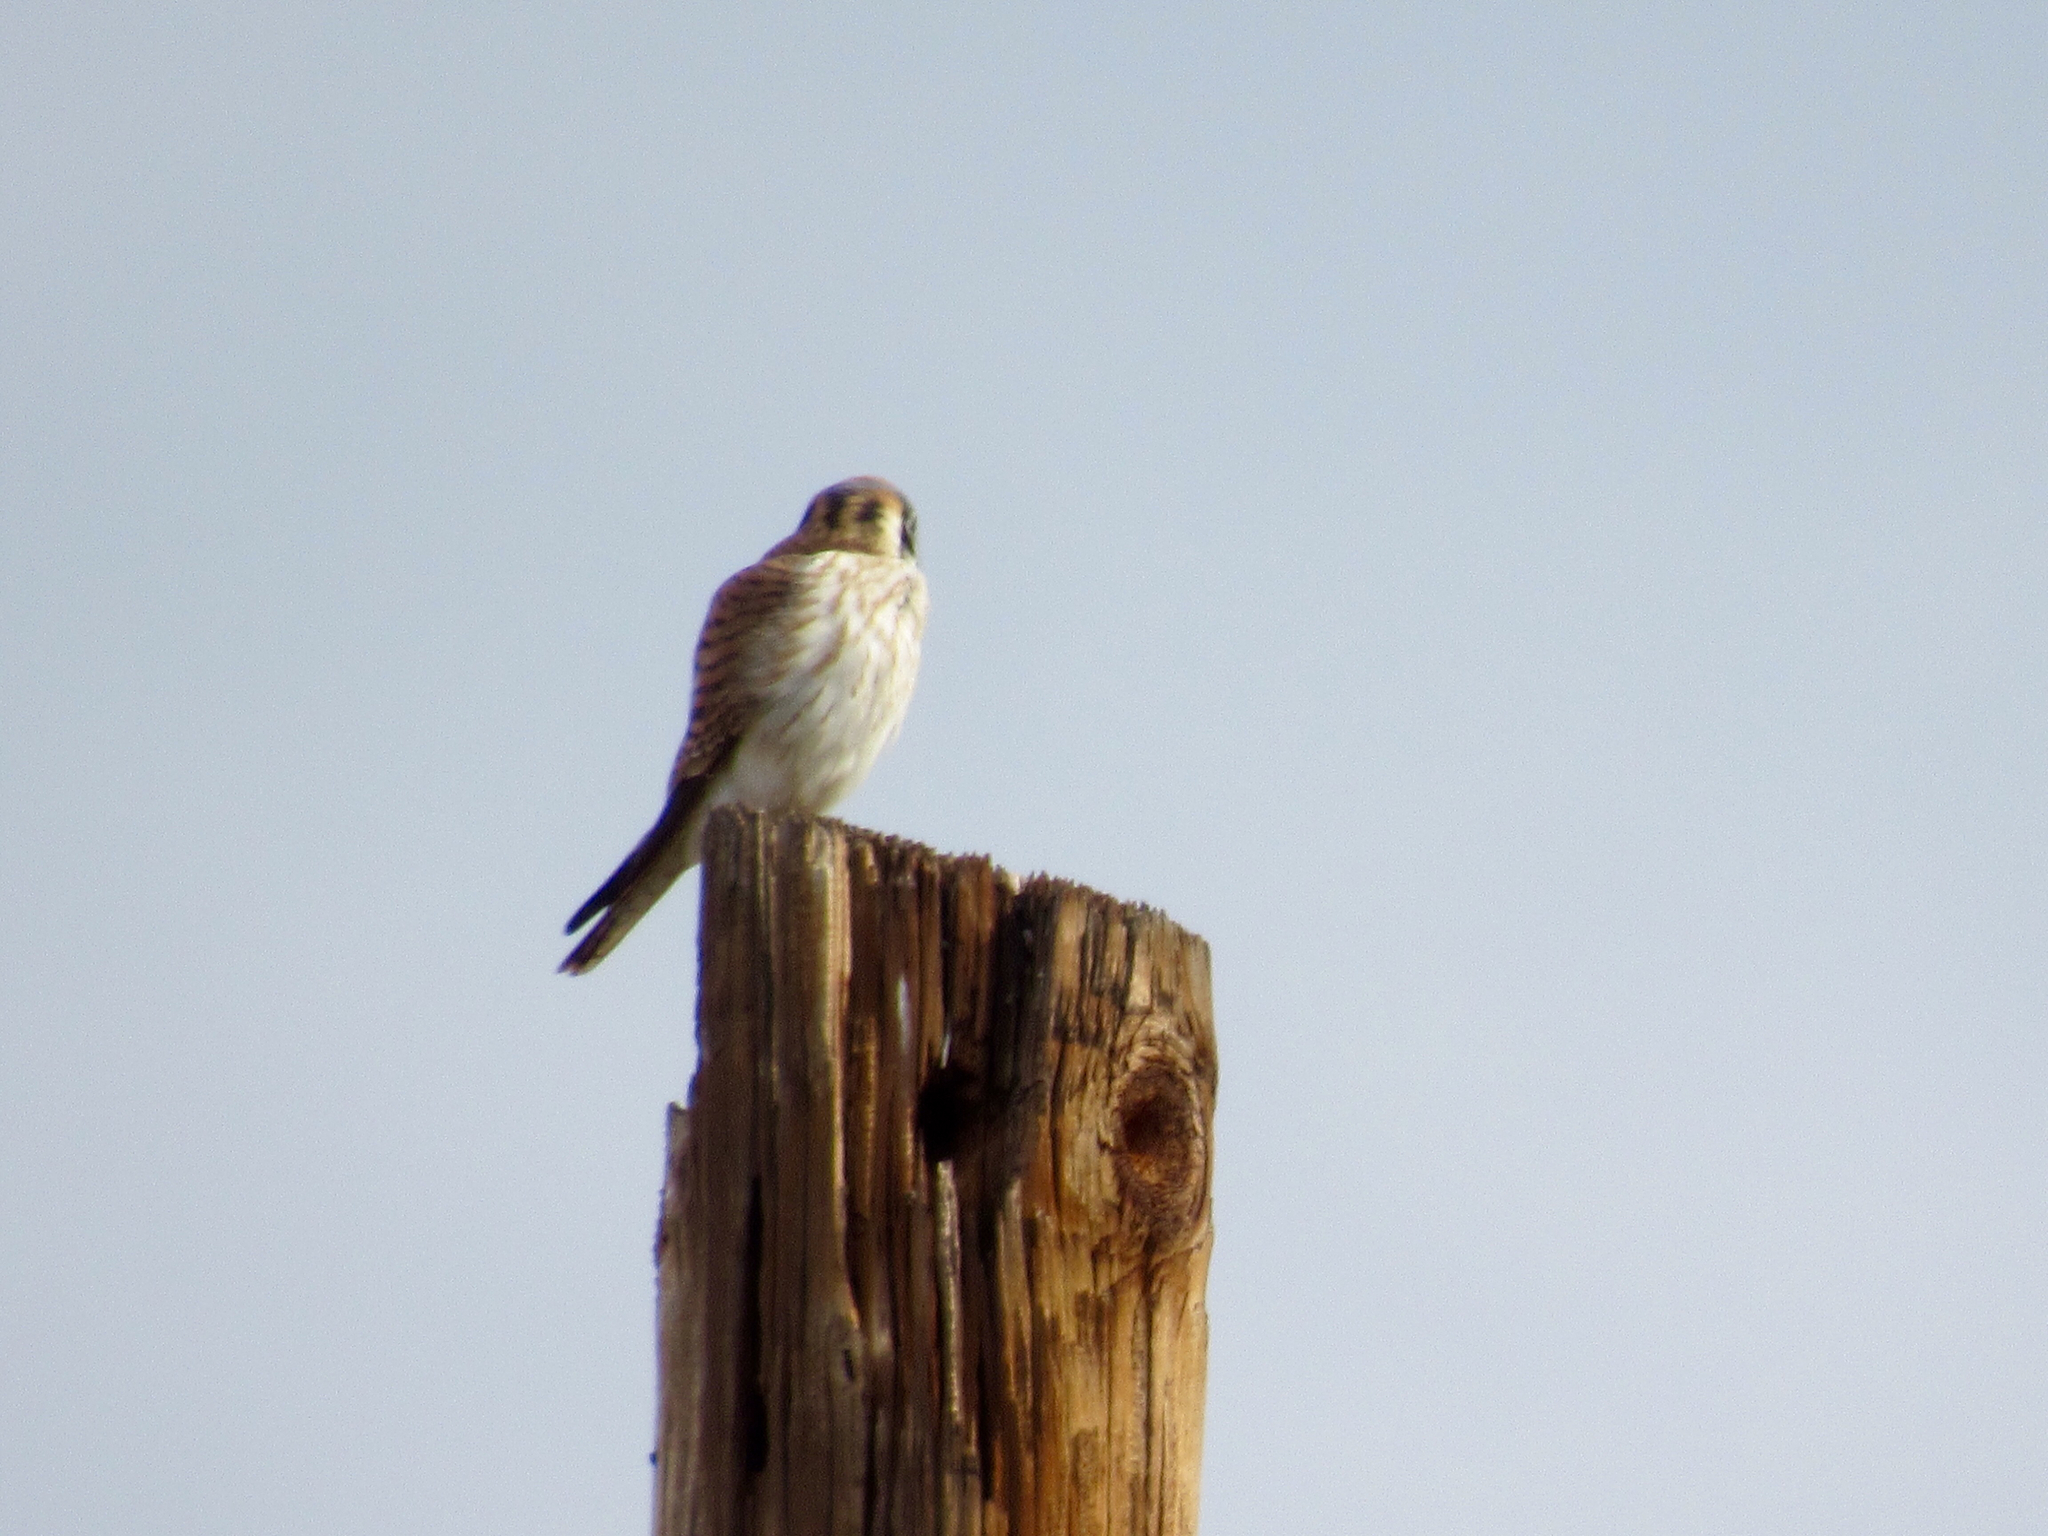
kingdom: Animalia
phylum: Chordata
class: Aves
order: Falconiformes
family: Falconidae
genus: Falco
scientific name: Falco sparverius
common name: American kestrel
